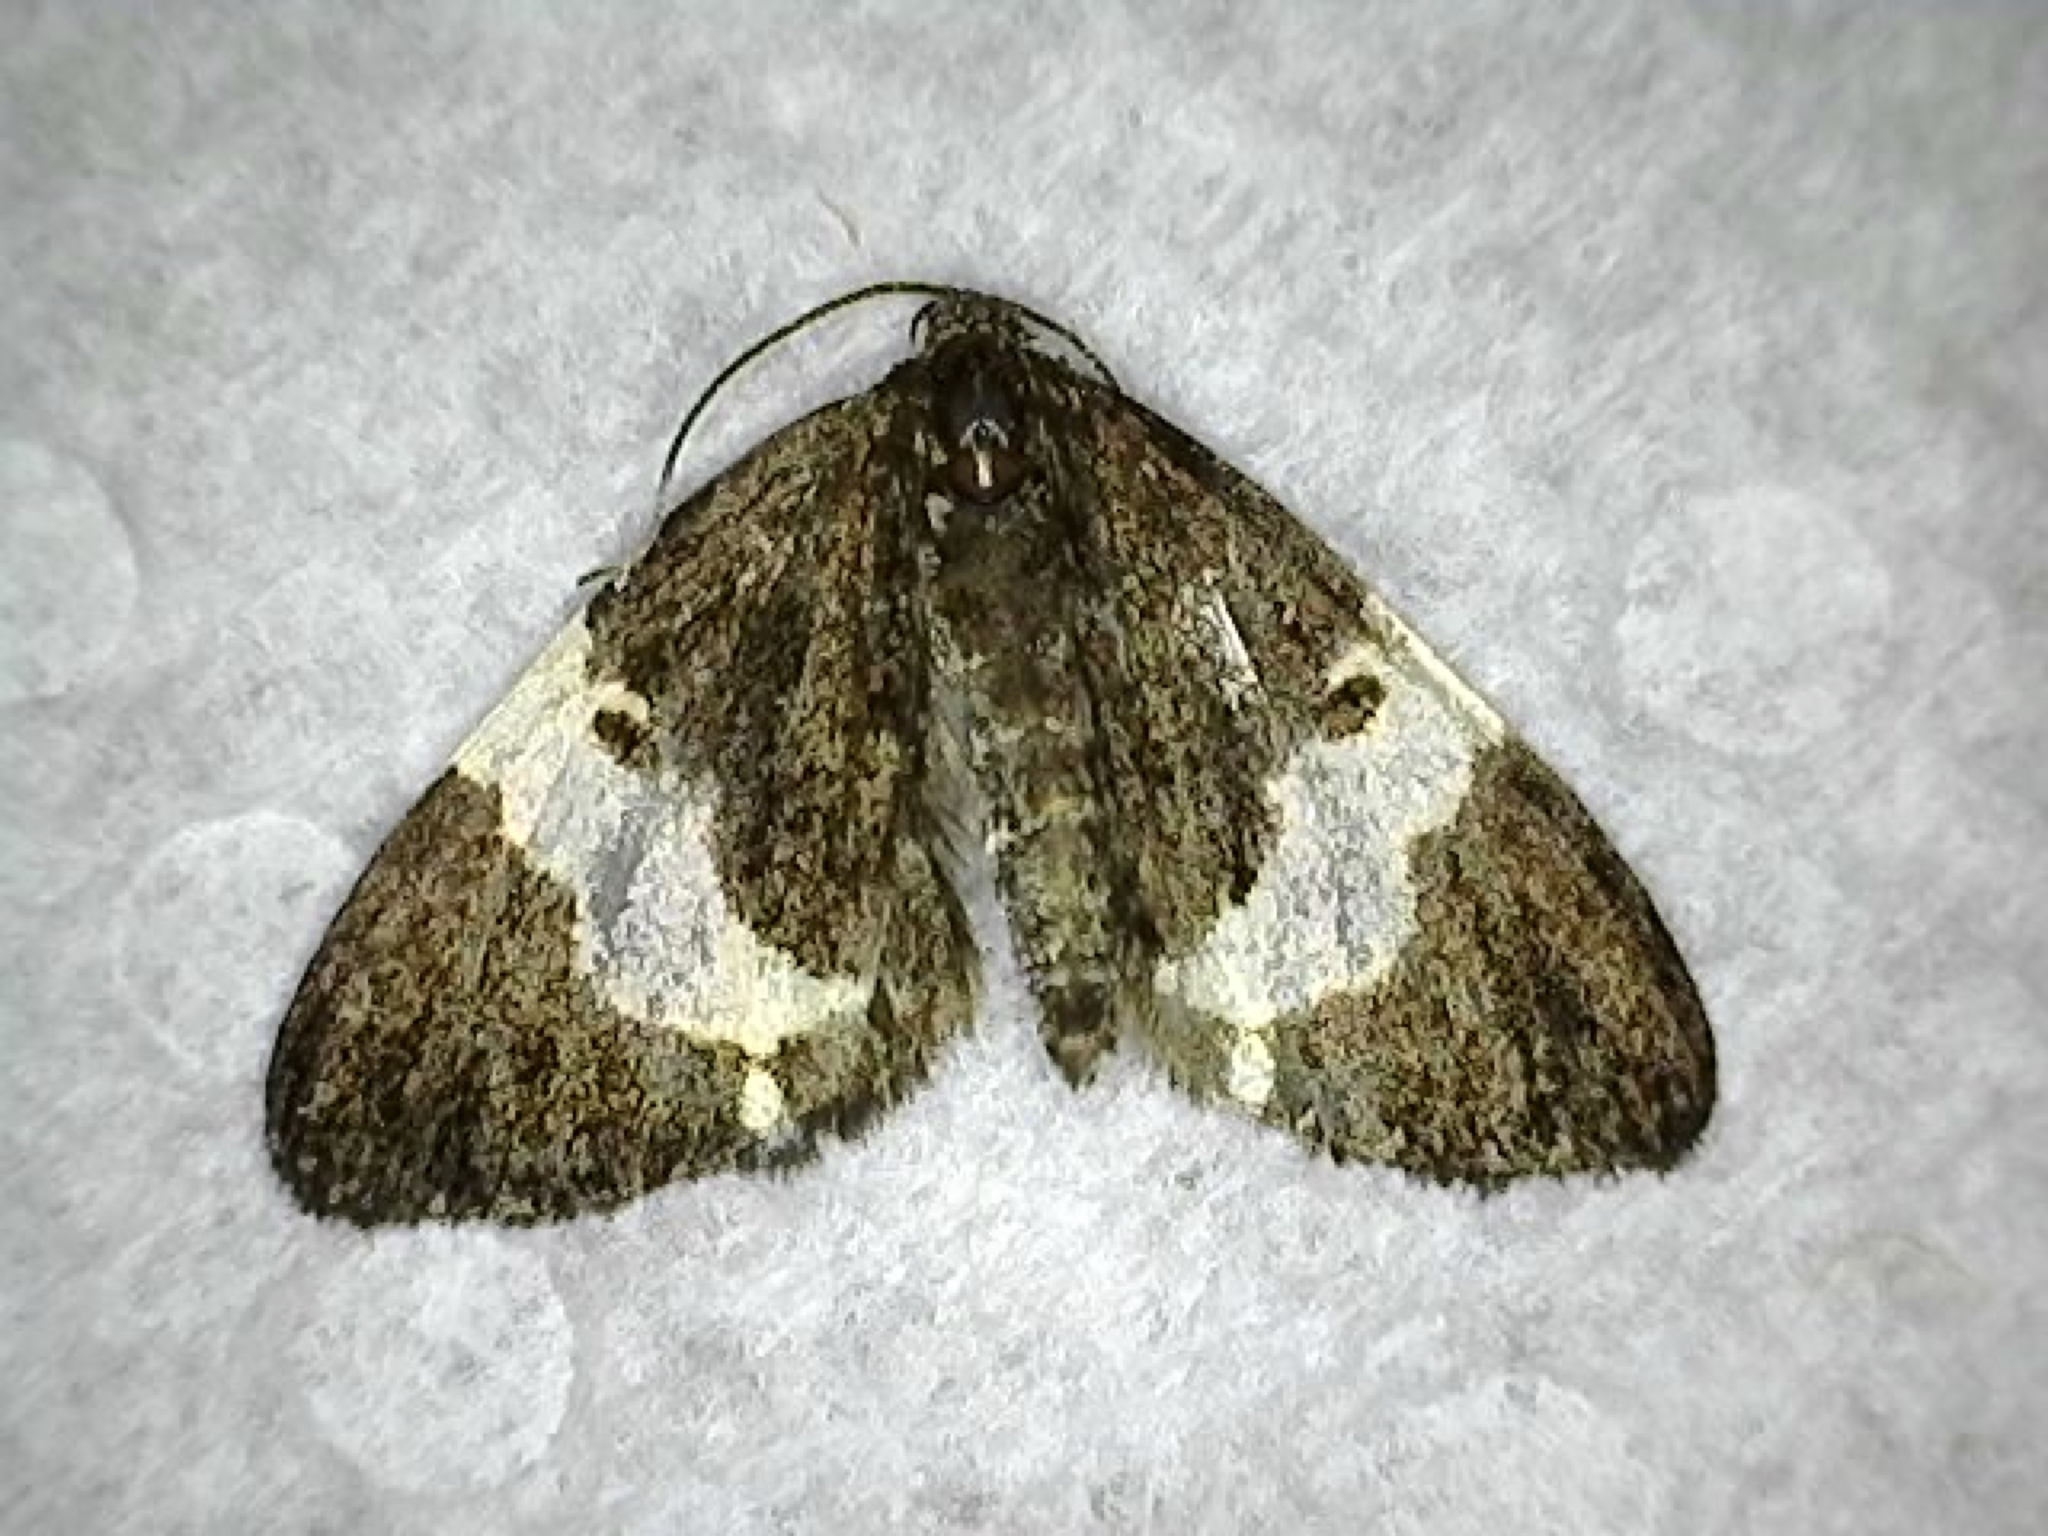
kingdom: Animalia
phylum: Arthropoda
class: Insecta
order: Lepidoptera
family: Geometridae
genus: Trichodezia
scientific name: Trichodezia albovittata
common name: White striped black
